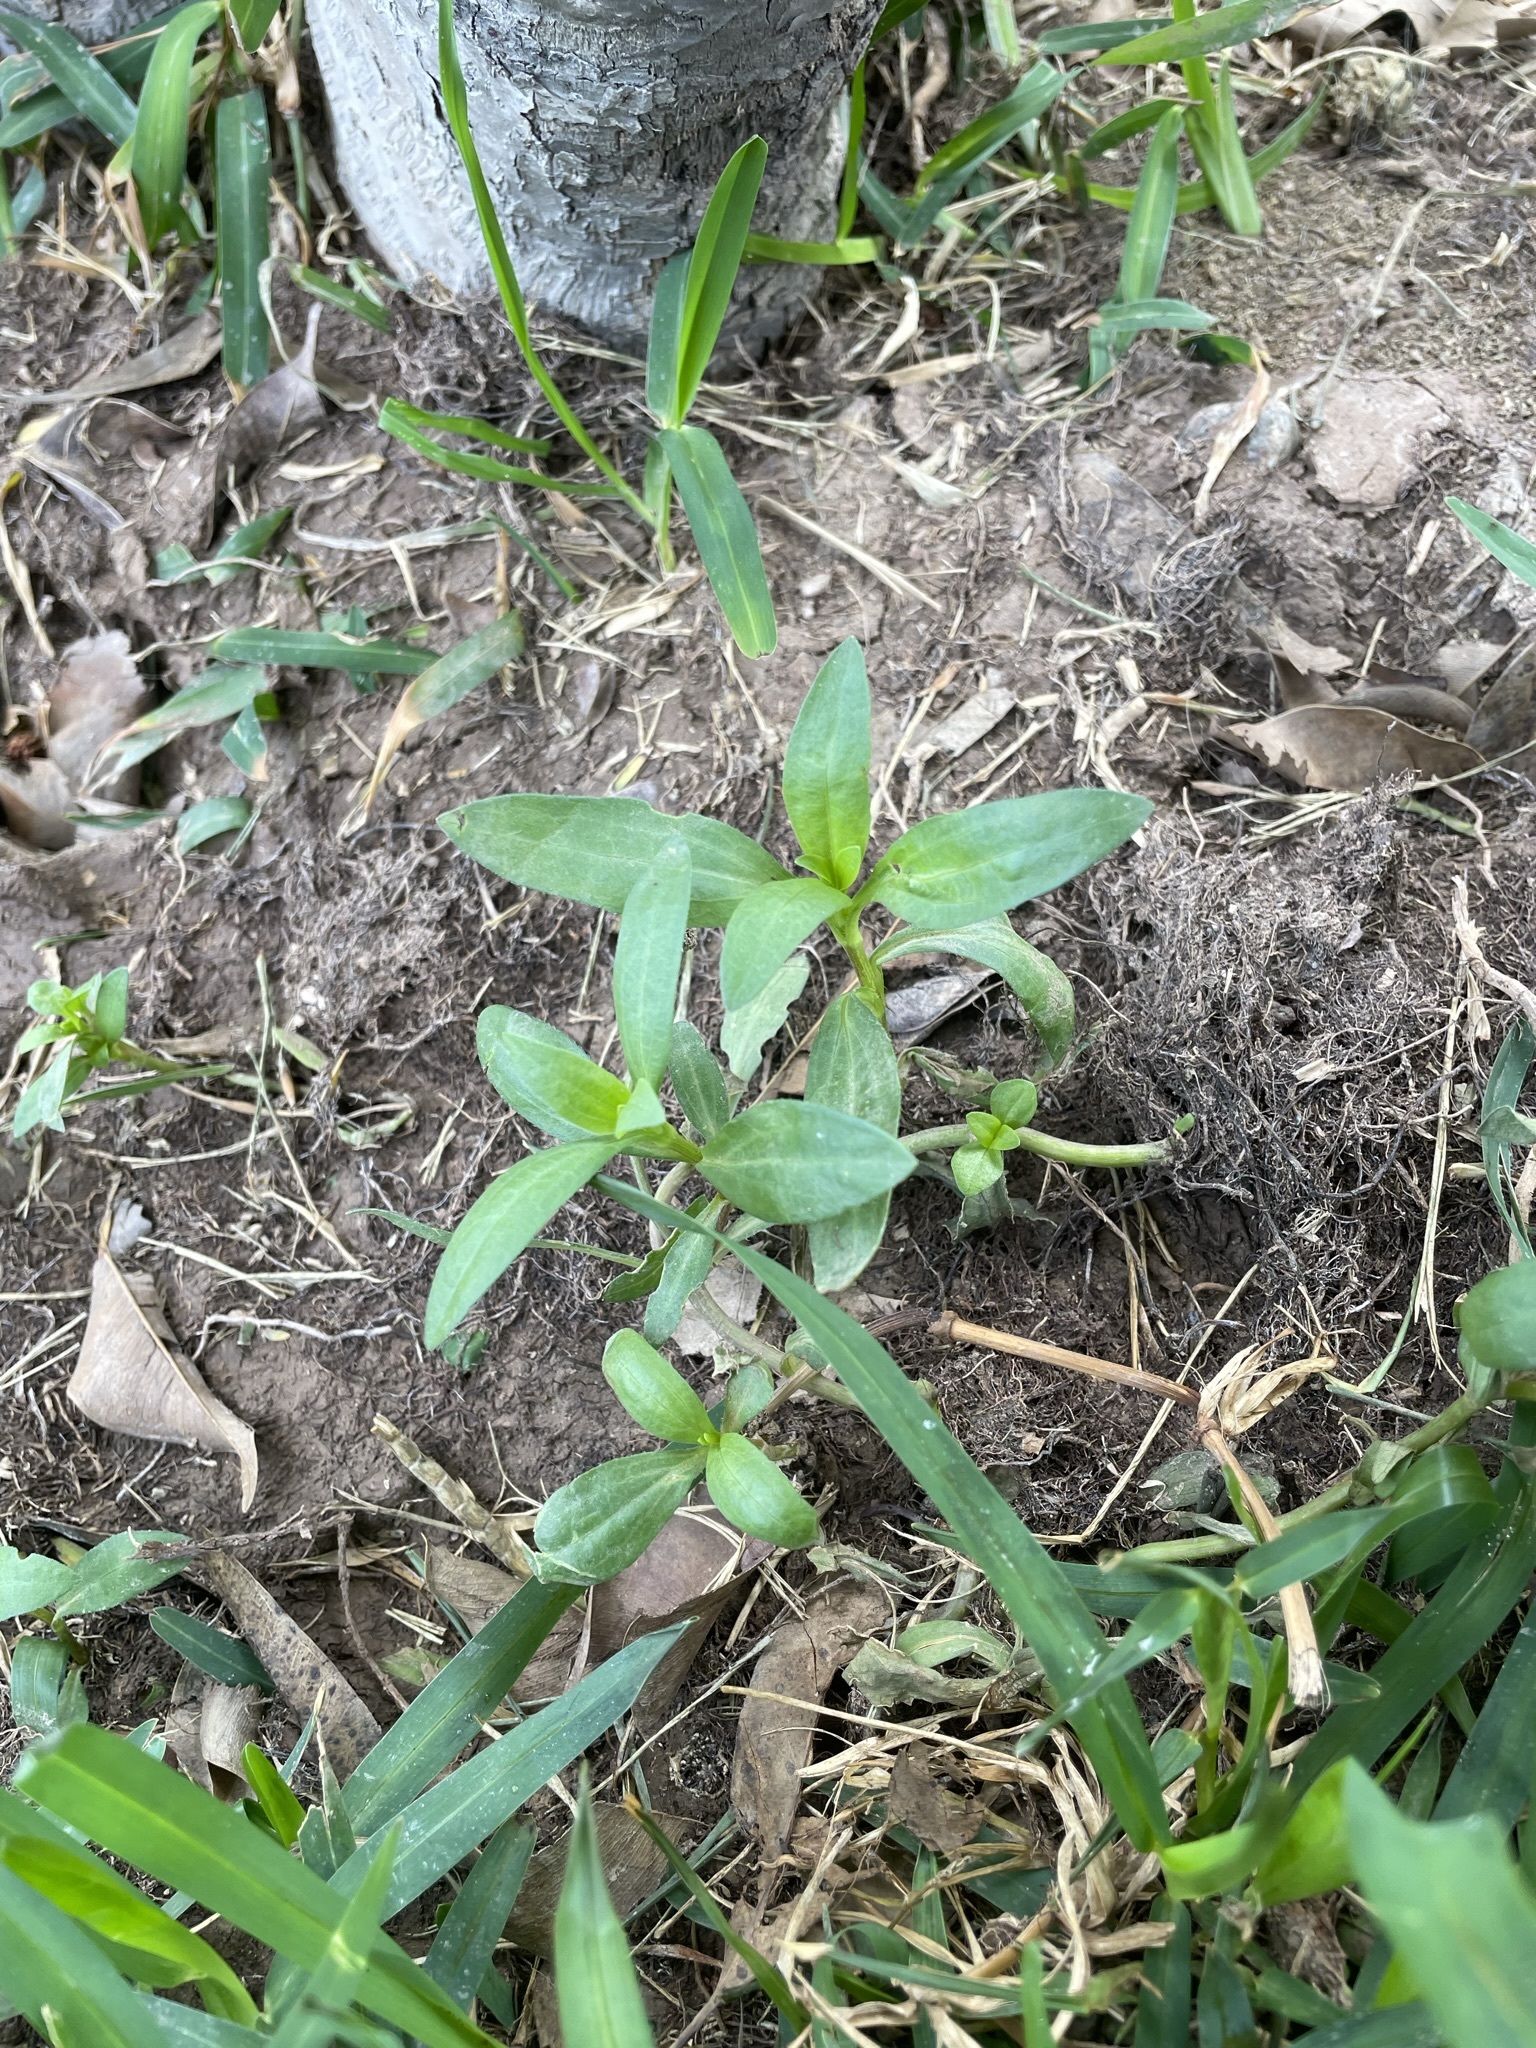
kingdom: Plantae
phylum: Tracheophyta
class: Magnoliopsida
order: Asterales
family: Asteraceae
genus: Spilanthes
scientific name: Spilanthes leiocarpa
